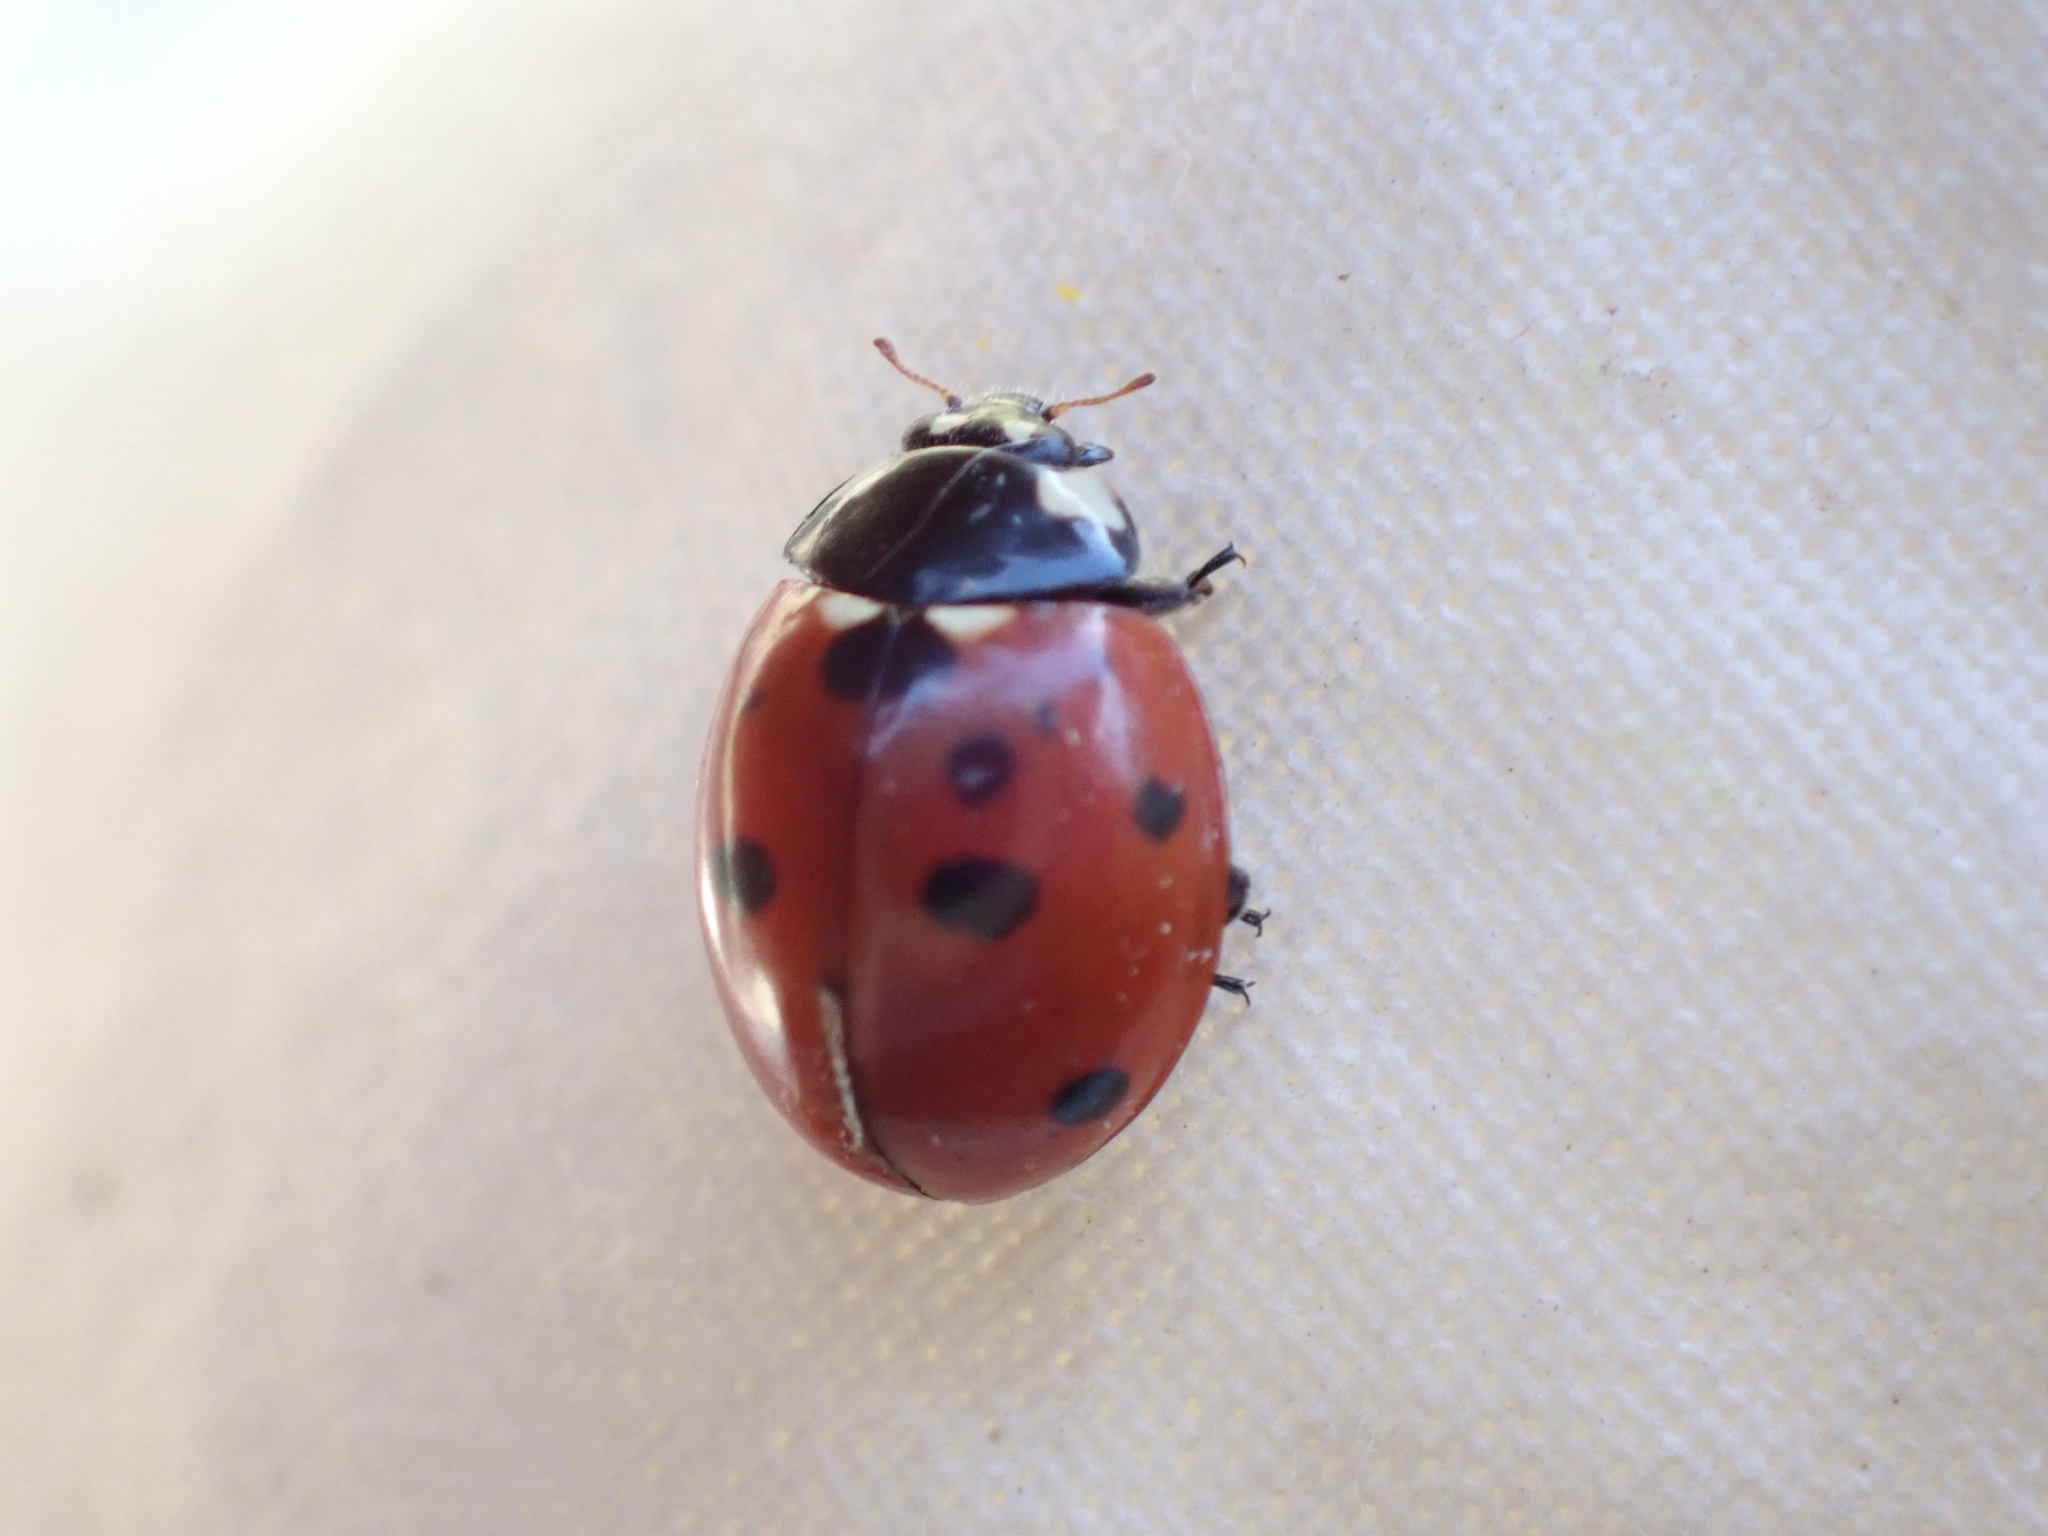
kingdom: Animalia
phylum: Arthropoda
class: Insecta
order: Coleoptera
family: Coccinellidae
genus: Coccinella
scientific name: Coccinella septempunctata
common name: Sevenspotted lady beetle
